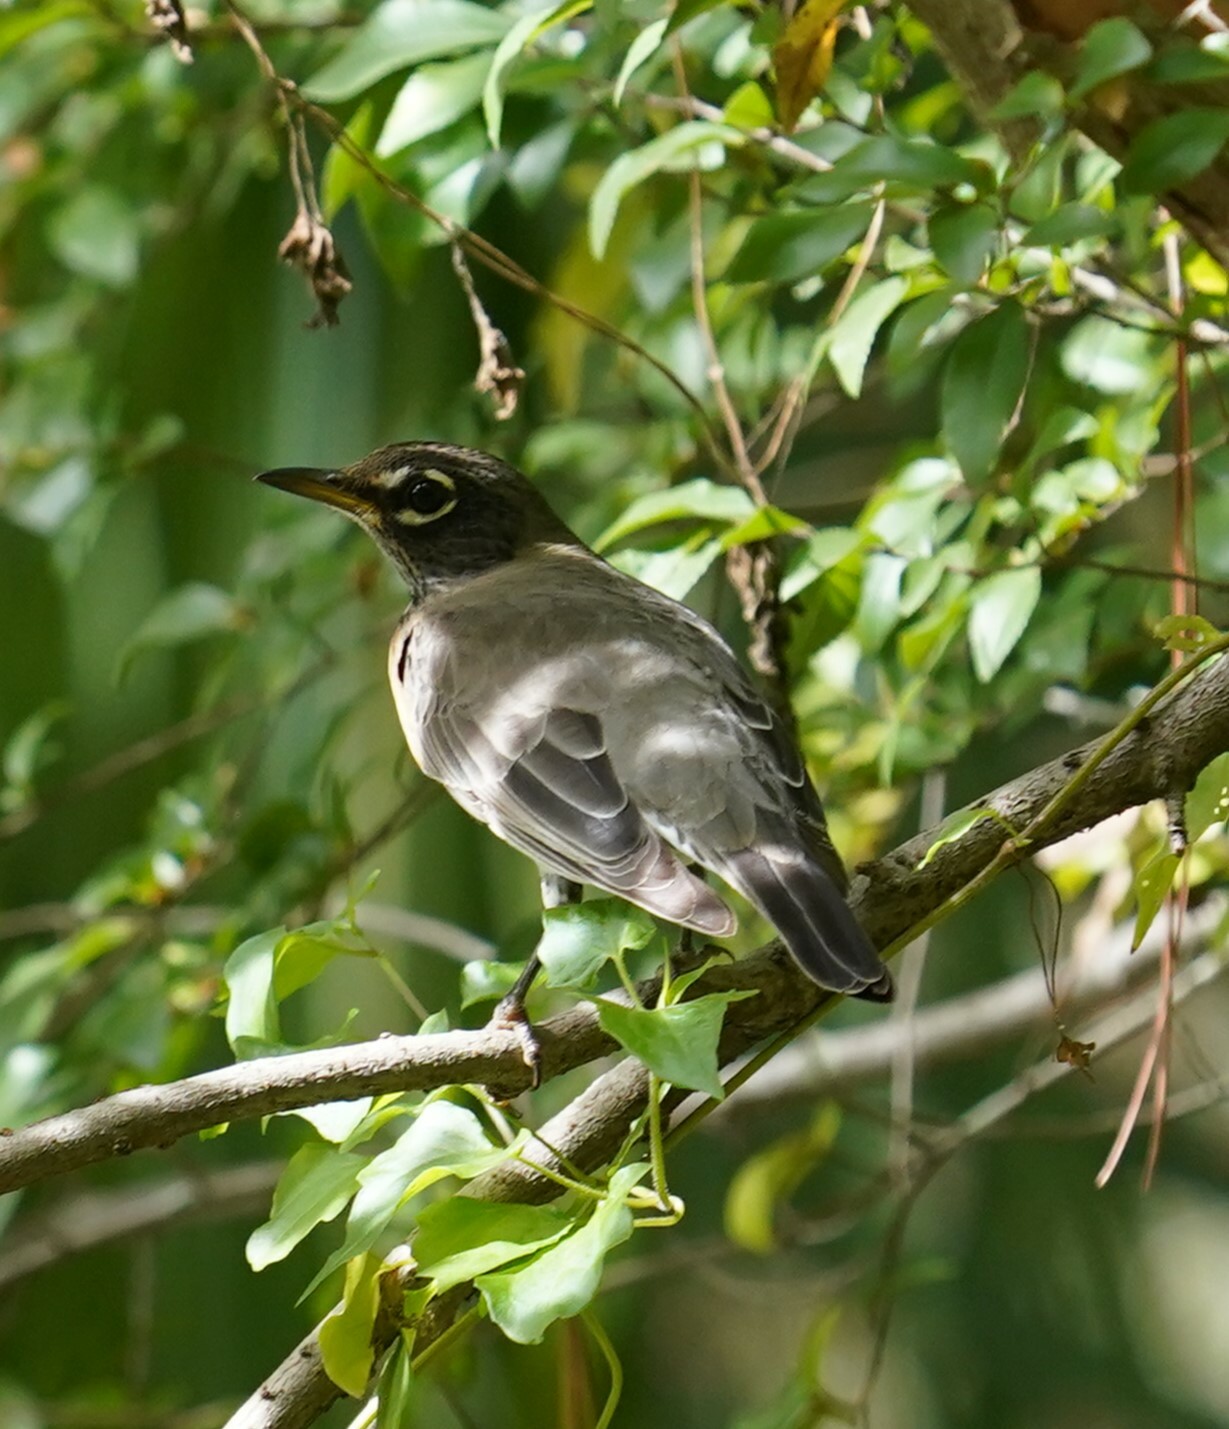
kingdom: Animalia
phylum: Chordata
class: Aves
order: Passeriformes
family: Turdidae
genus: Turdus
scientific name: Turdus migratorius
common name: American robin
